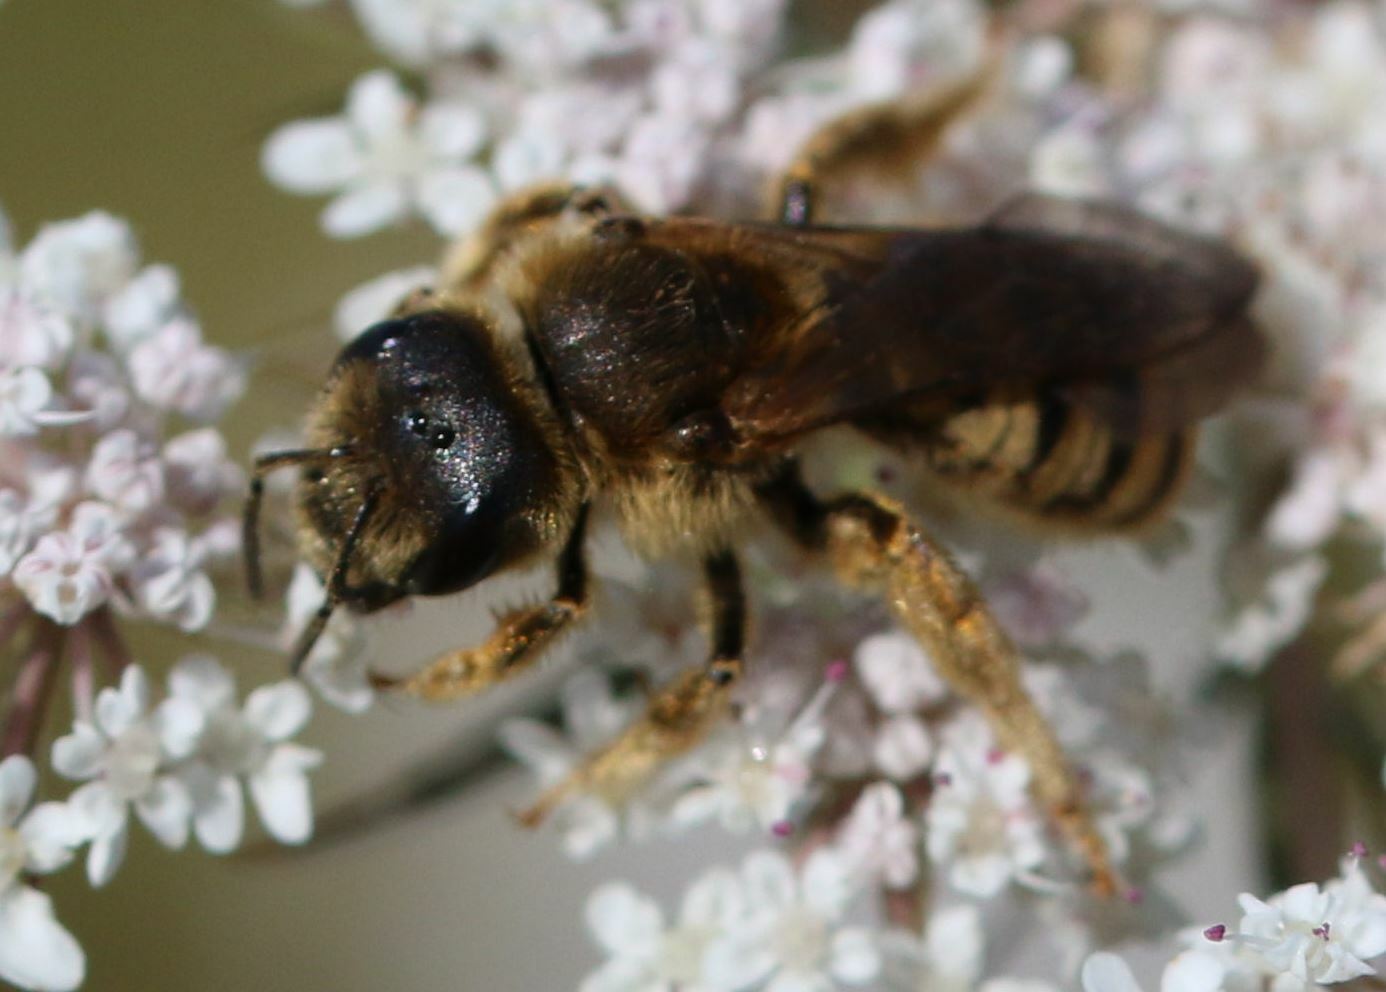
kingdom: Animalia
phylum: Arthropoda
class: Insecta
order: Hymenoptera
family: Halictidae
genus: Halictus
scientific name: Halictus scabiosae
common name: Great banded furrow bee
